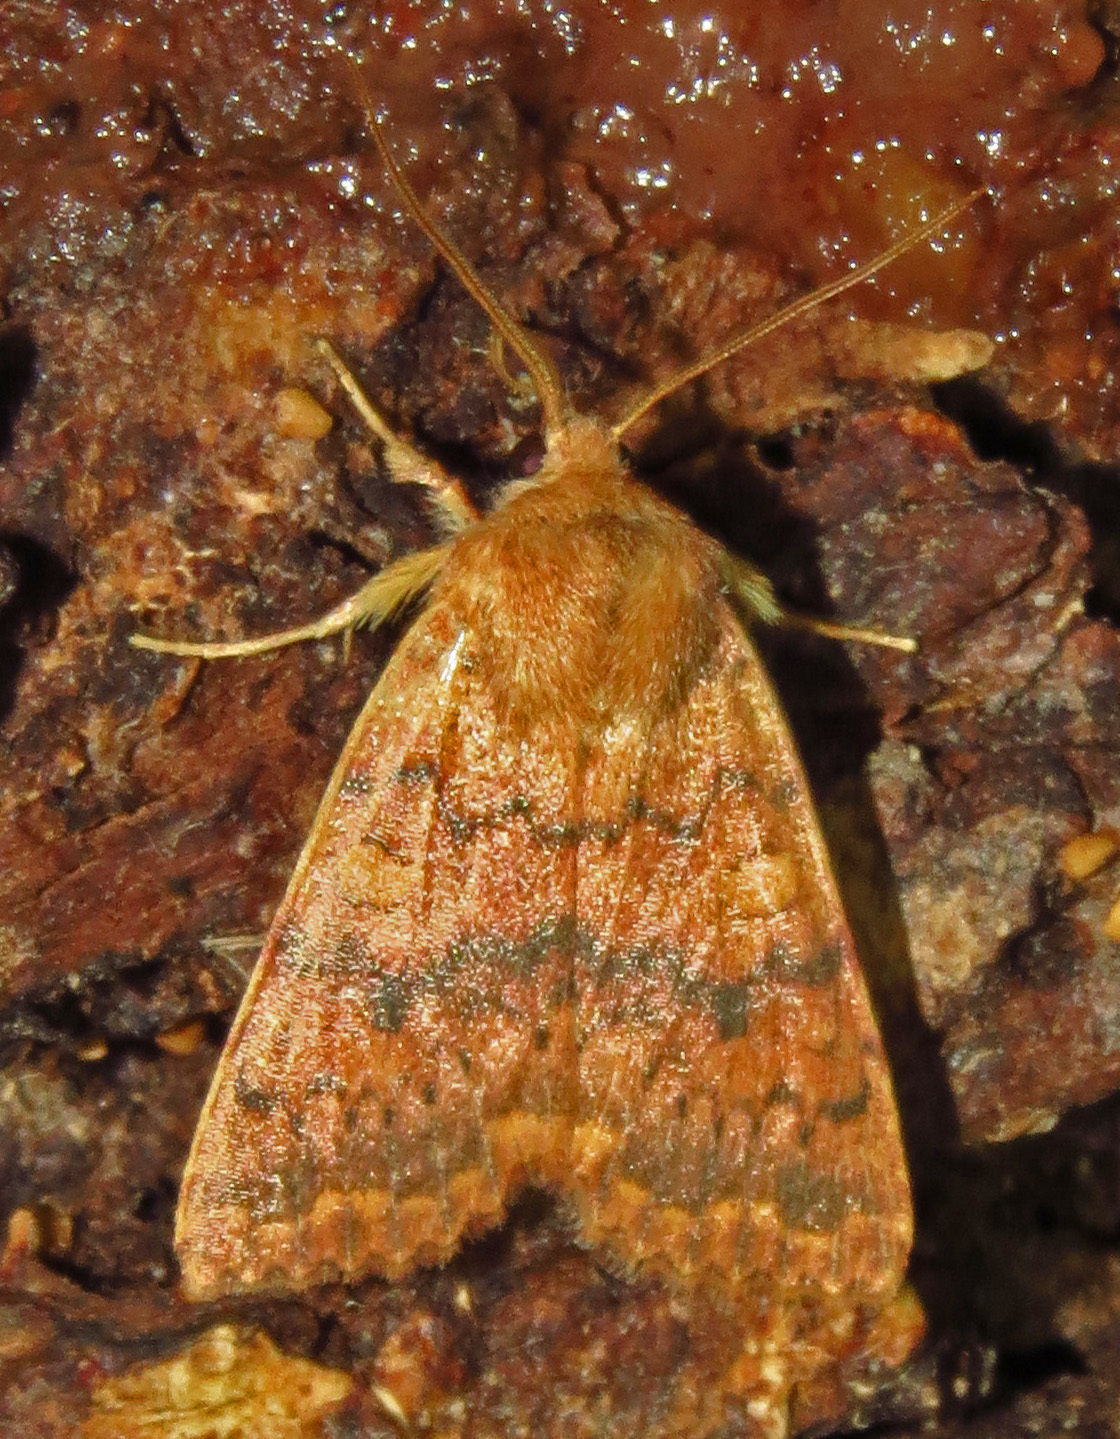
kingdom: Animalia
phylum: Arthropoda
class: Insecta
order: Lepidoptera
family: Noctuidae
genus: Agrochola
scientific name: Agrochola bicolorago
